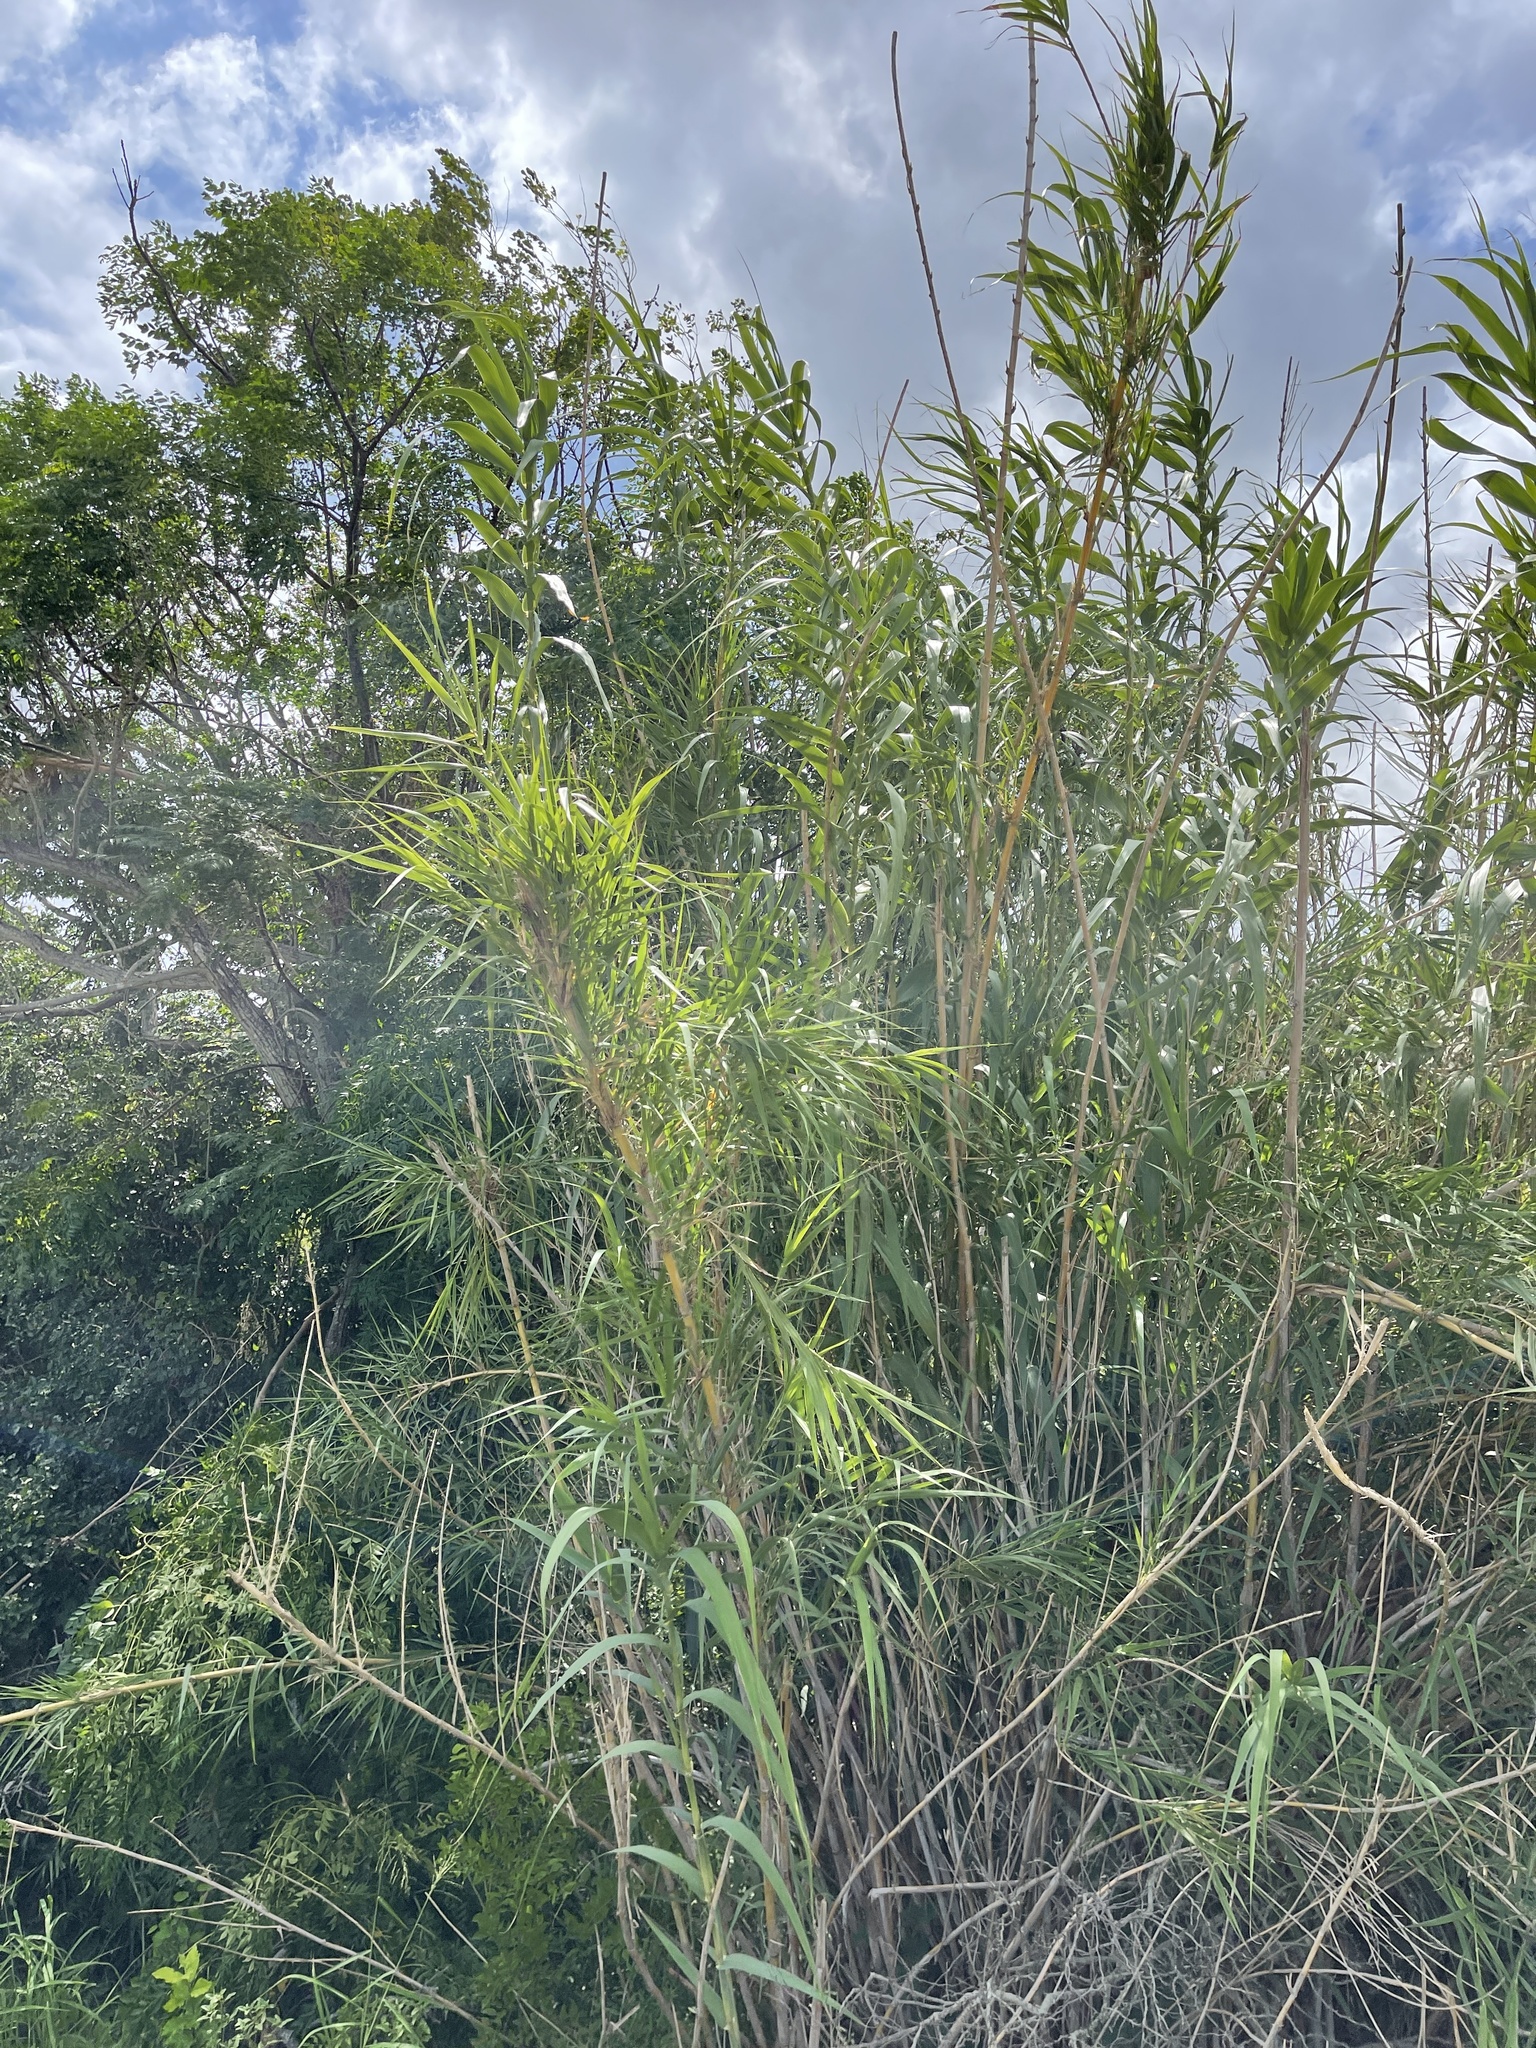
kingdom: Plantae
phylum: Tracheophyta
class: Liliopsida
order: Poales
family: Poaceae
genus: Arundo
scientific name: Arundo donax
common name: Giant reed
